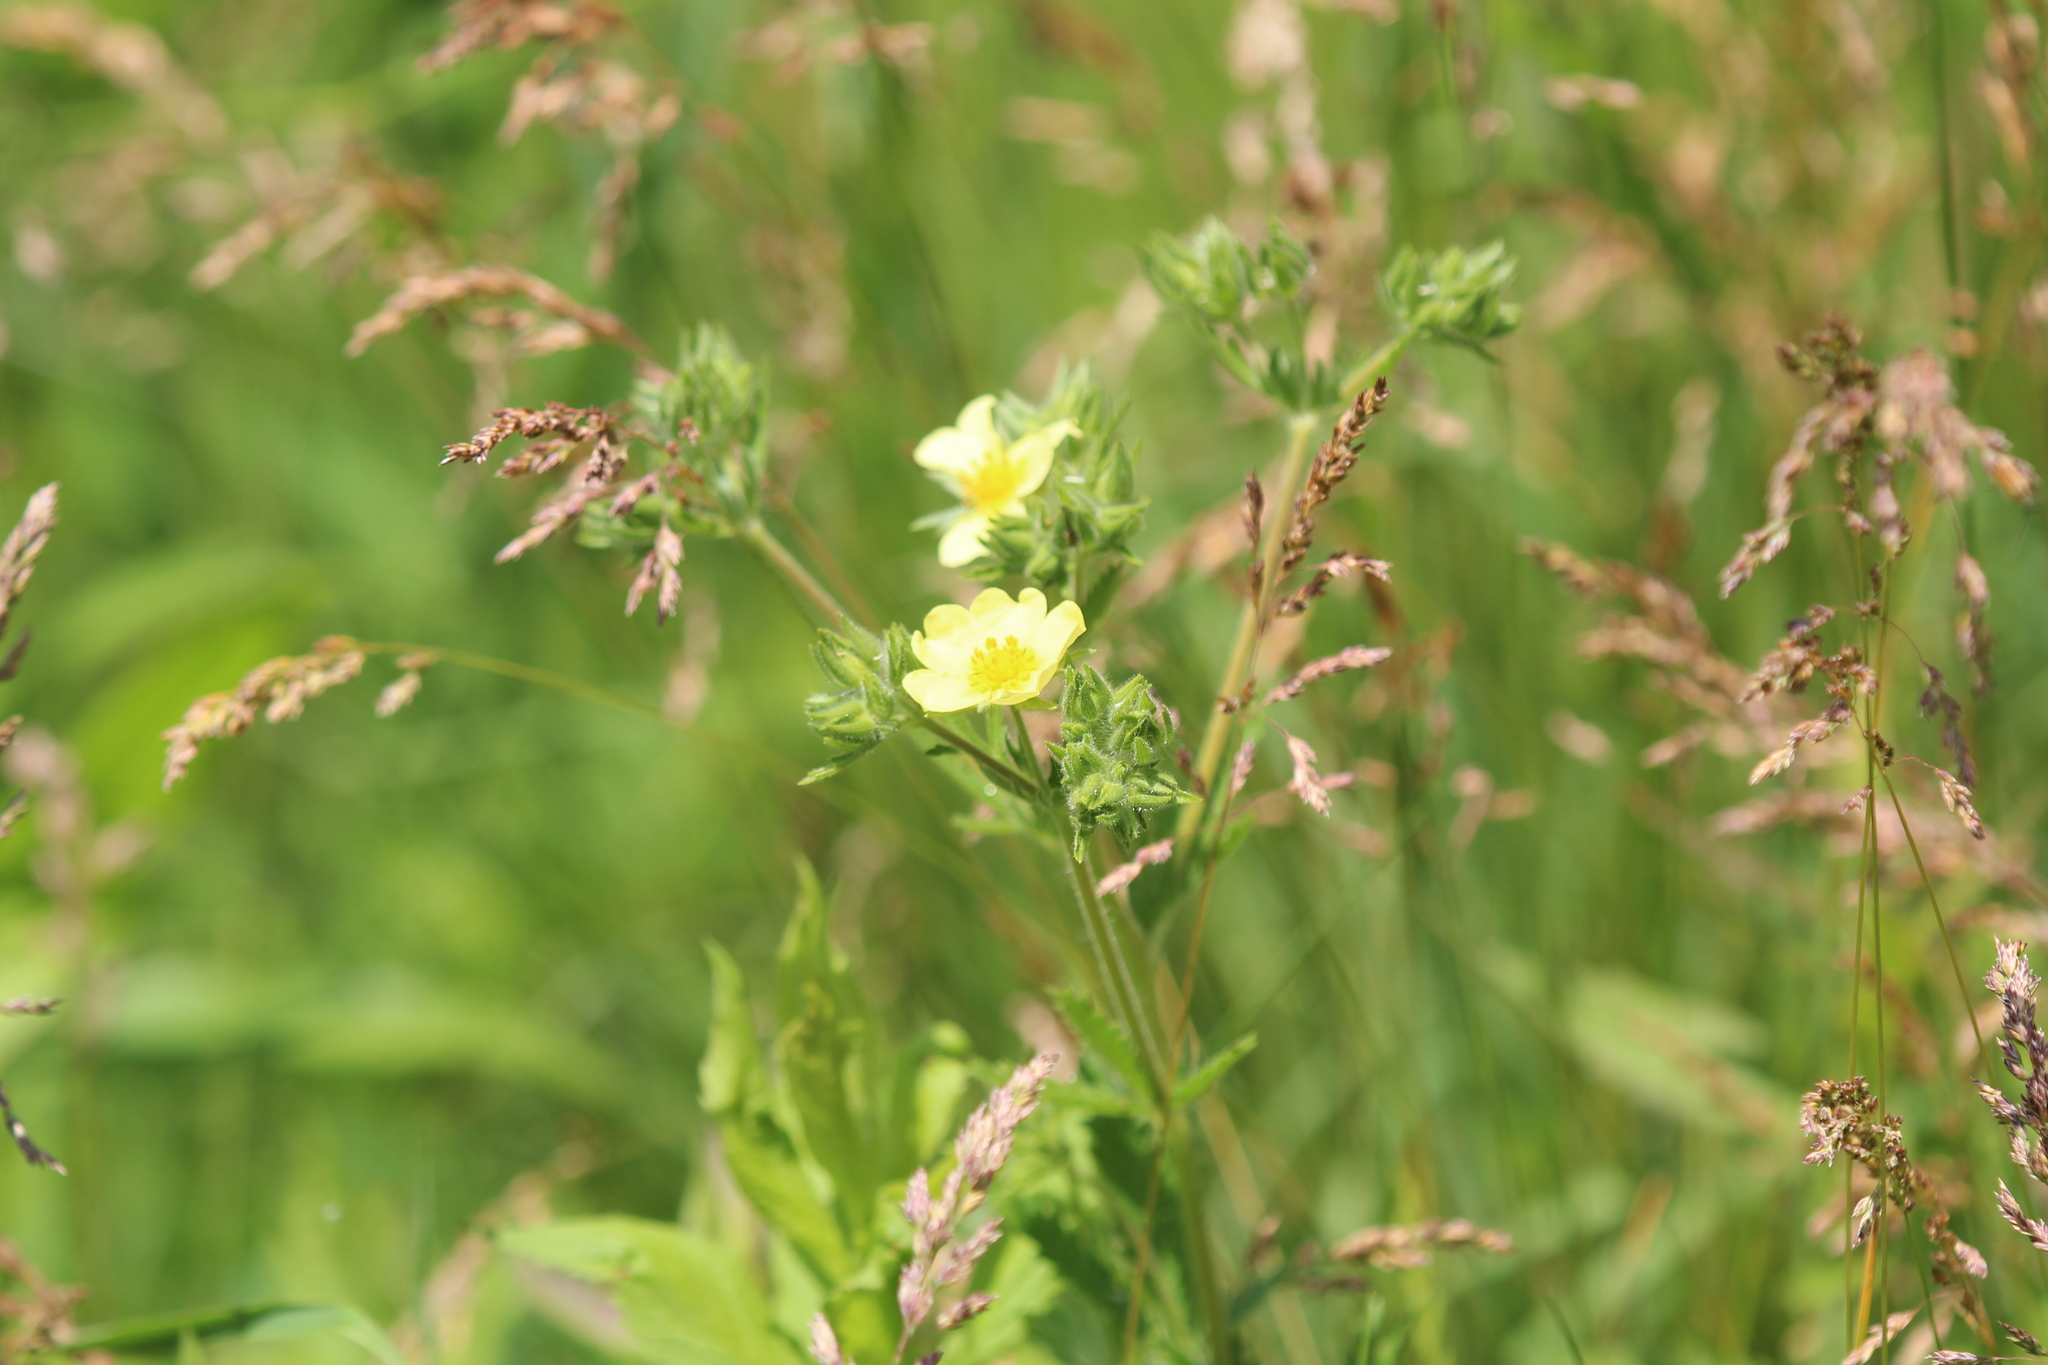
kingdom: Plantae
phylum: Tracheophyta
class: Magnoliopsida
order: Rosales
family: Rosaceae
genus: Potentilla
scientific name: Potentilla recta
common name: Sulphur cinquefoil
